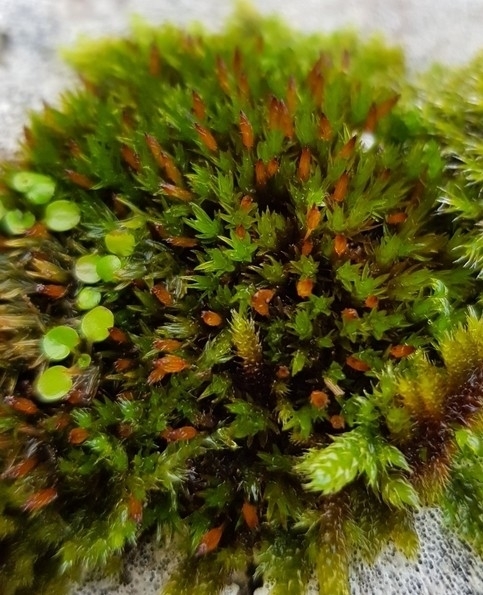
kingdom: Plantae
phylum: Bryophyta
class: Bryopsida
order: Orthotrichales
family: Orthotrichaceae
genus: Orthotrichum
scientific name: Orthotrichum anomalum
